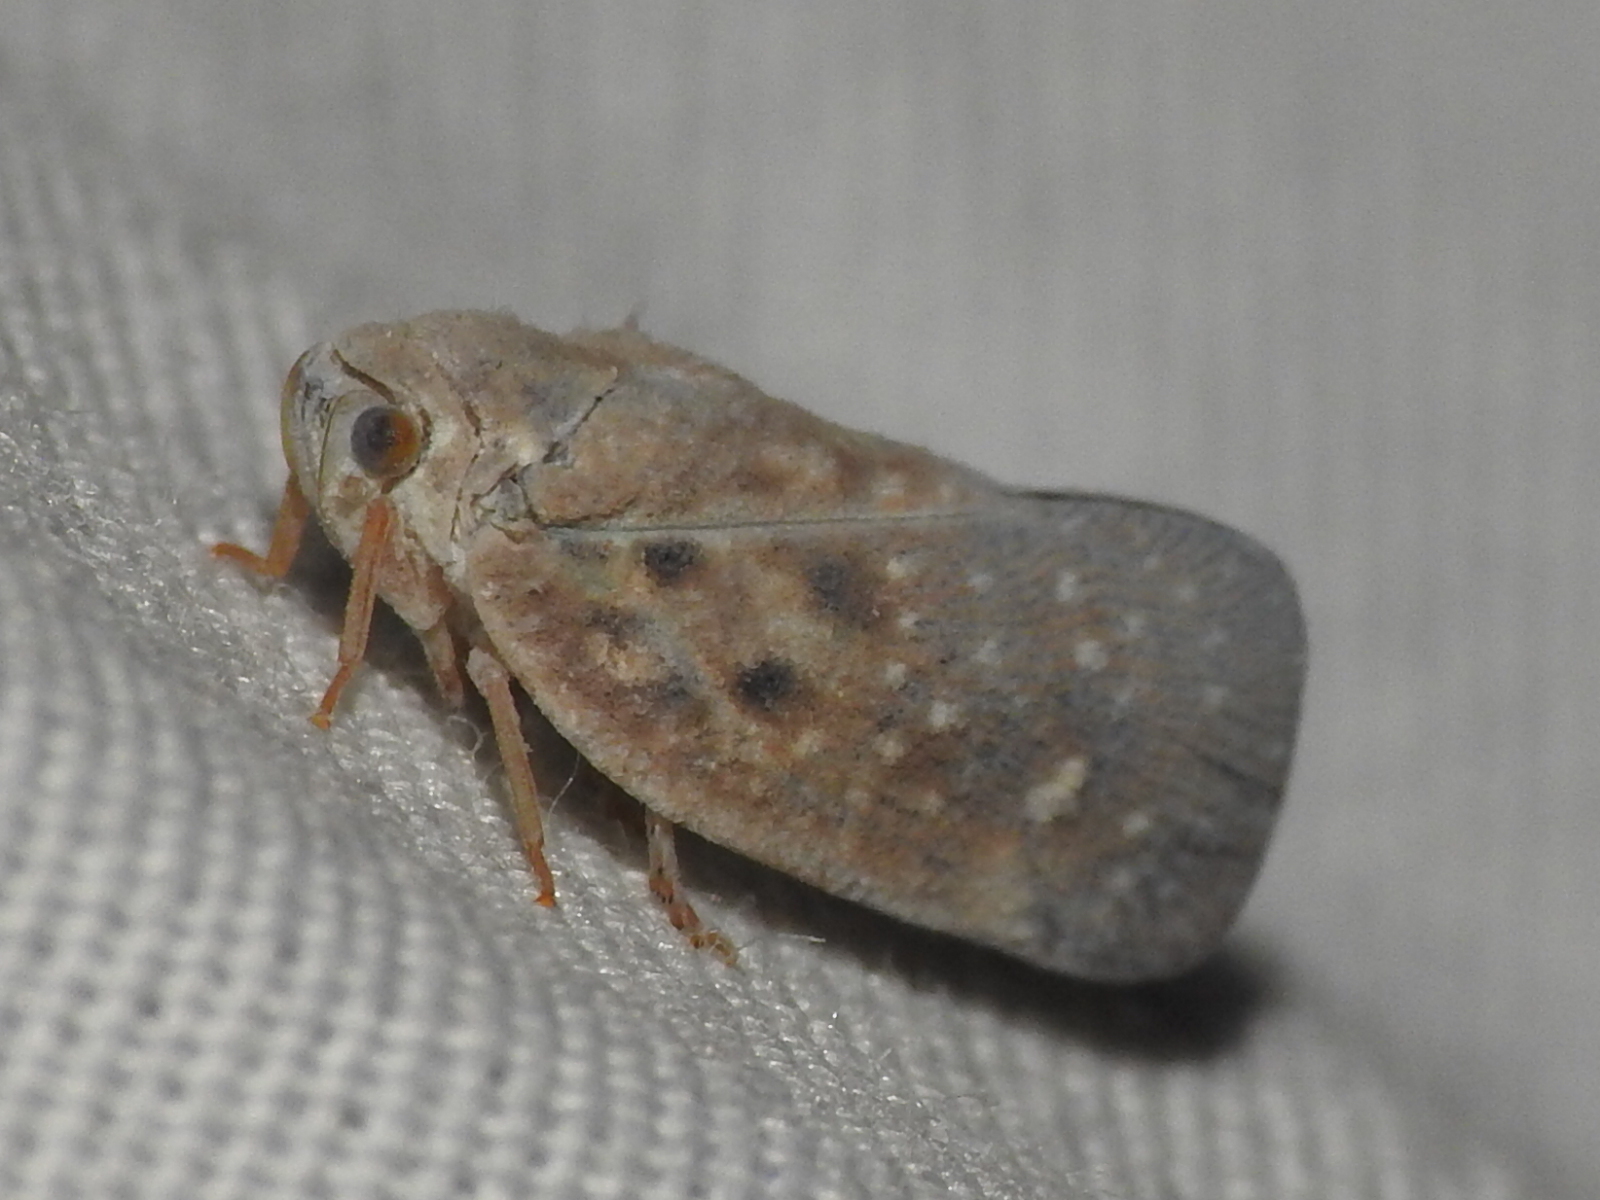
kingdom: Animalia
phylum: Arthropoda
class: Insecta
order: Hemiptera
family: Flatidae
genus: Metcalfa
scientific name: Metcalfa pruinosa
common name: Citrus flatid planthopper
